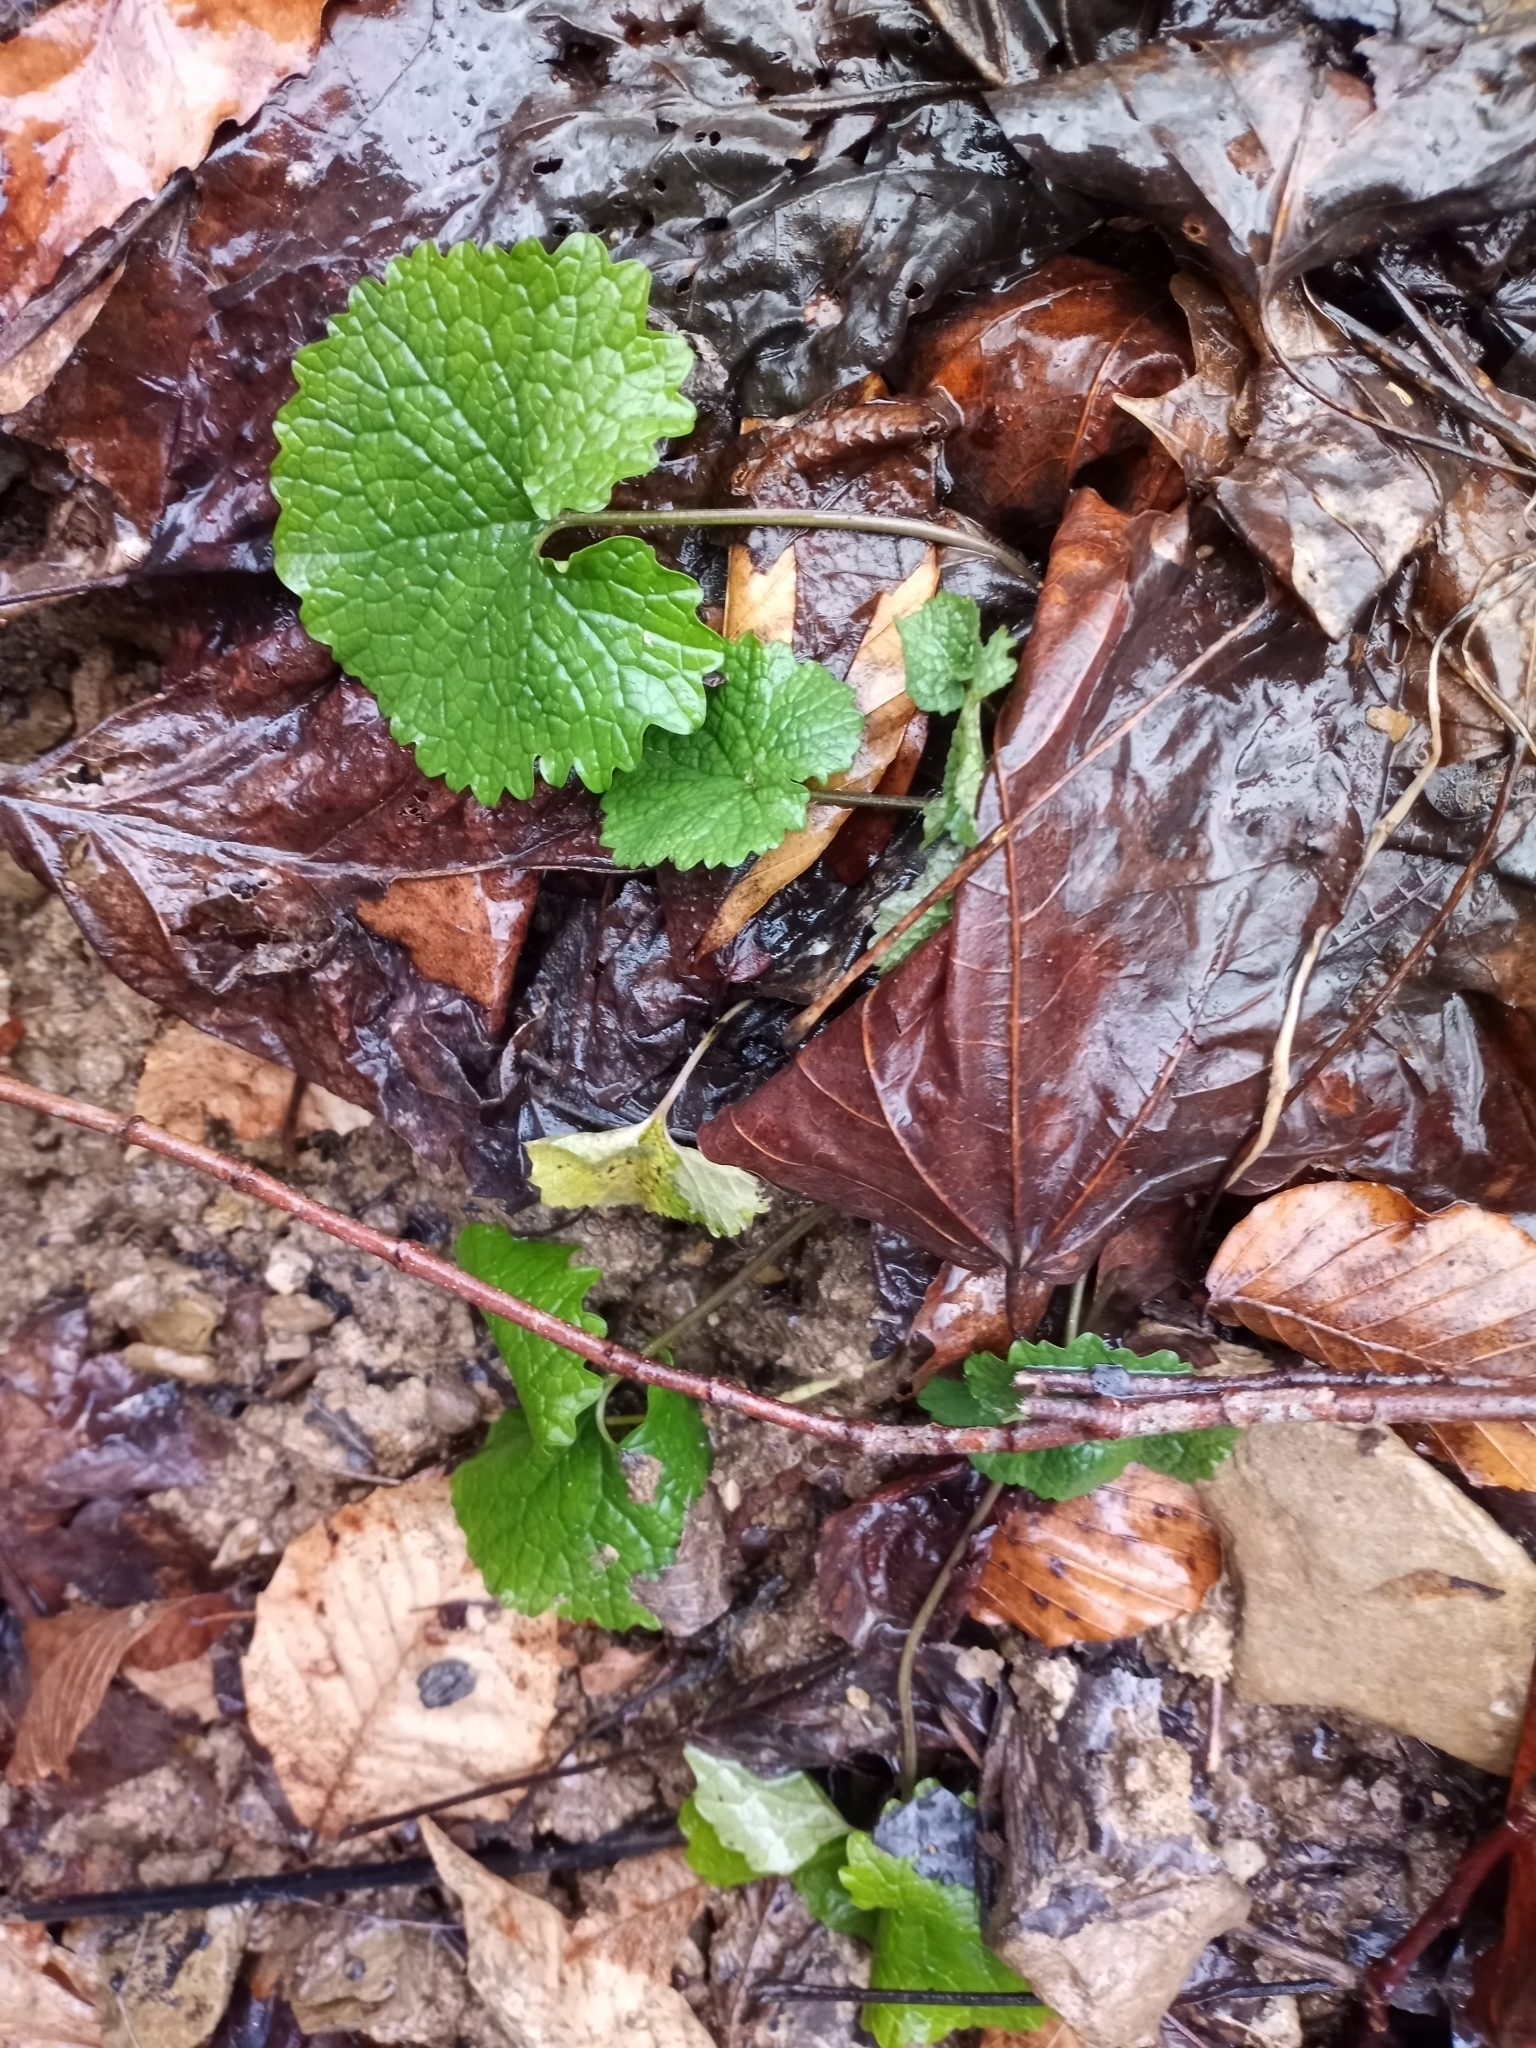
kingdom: Plantae
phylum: Tracheophyta
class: Magnoliopsida
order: Brassicales
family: Brassicaceae
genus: Alliaria
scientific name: Alliaria petiolata
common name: Garlic mustard
